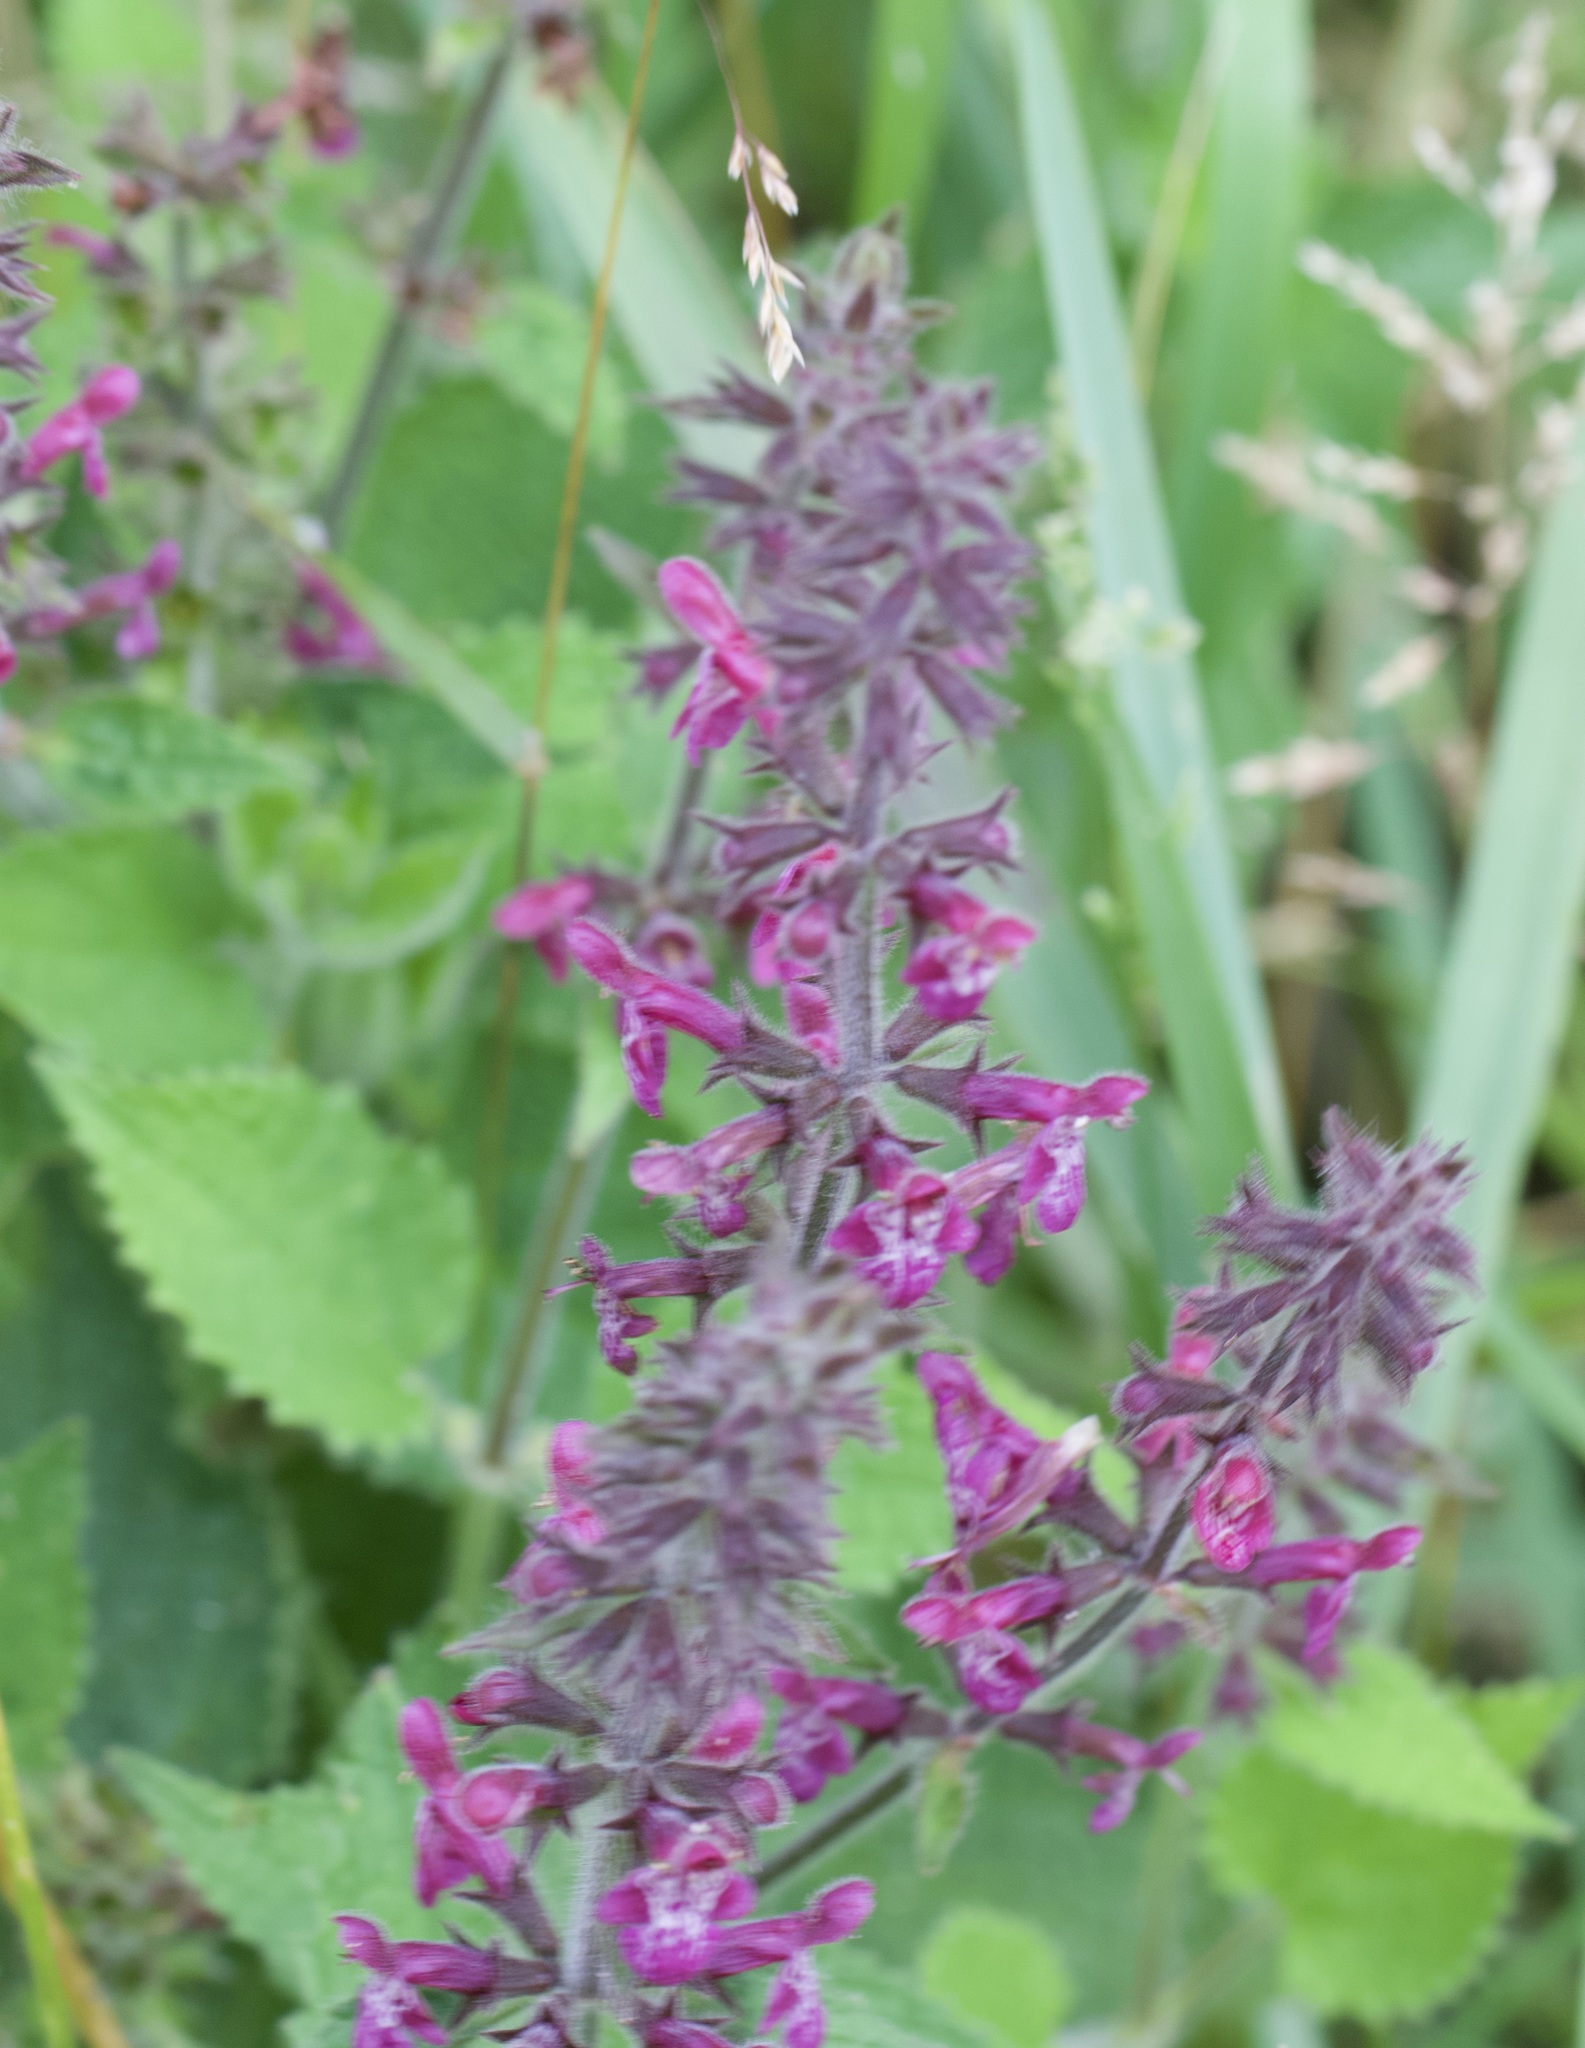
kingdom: Plantae
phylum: Tracheophyta
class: Magnoliopsida
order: Lamiales
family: Lamiaceae
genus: Stachys
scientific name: Stachys sylvatica
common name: Hedge woundwort
